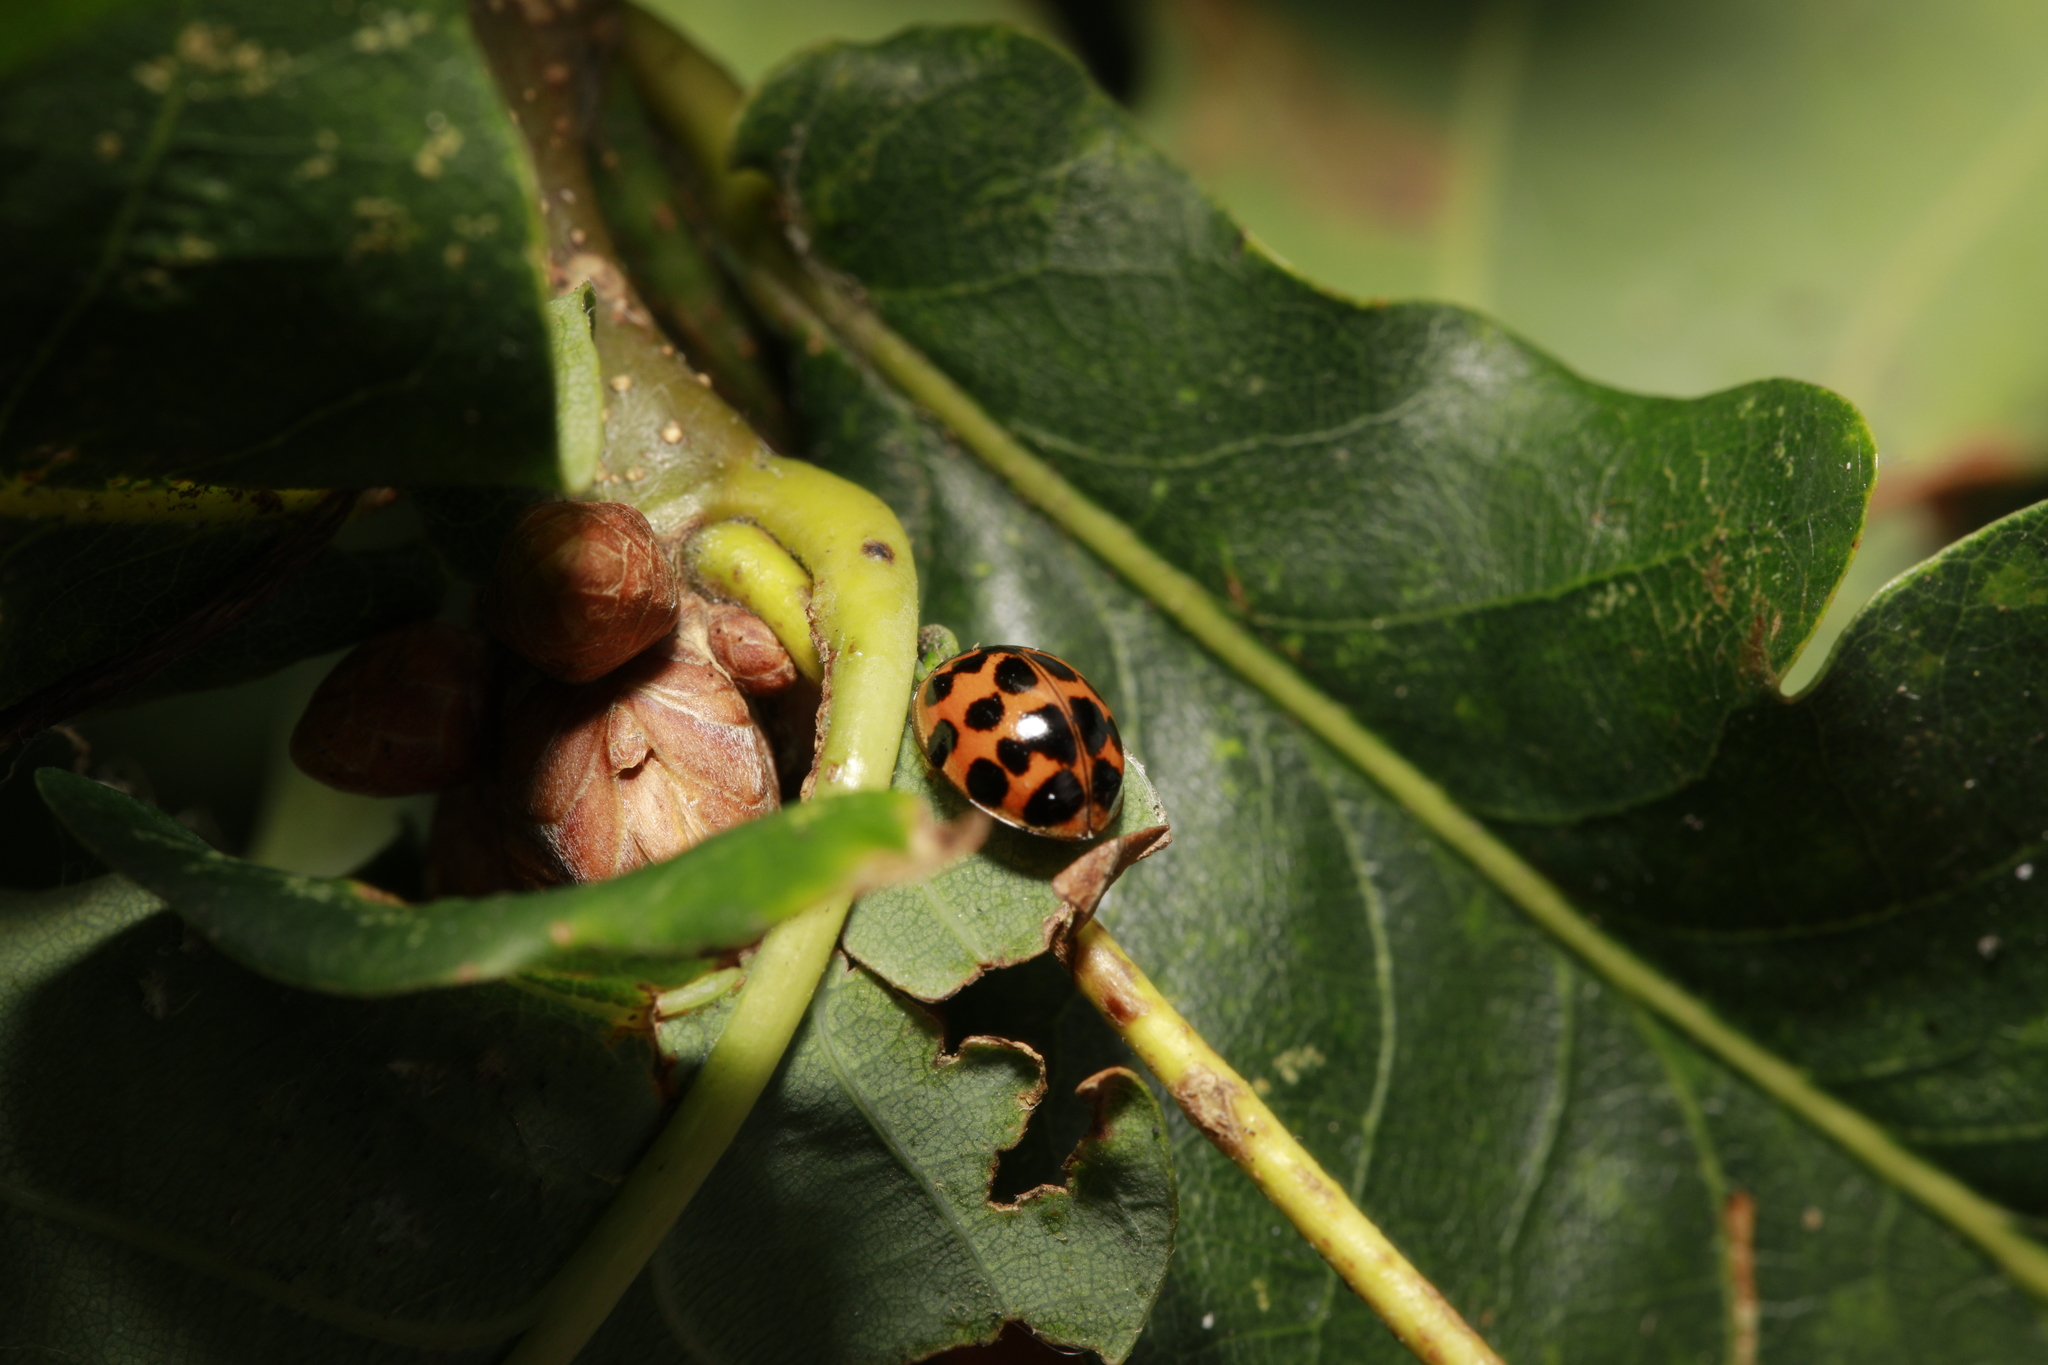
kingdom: Animalia
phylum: Arthropoda
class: Insecta
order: Coleoptera
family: Coccinellidae
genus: Harmonia
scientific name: Harmonia axyridis
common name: Harlequin ladybird
